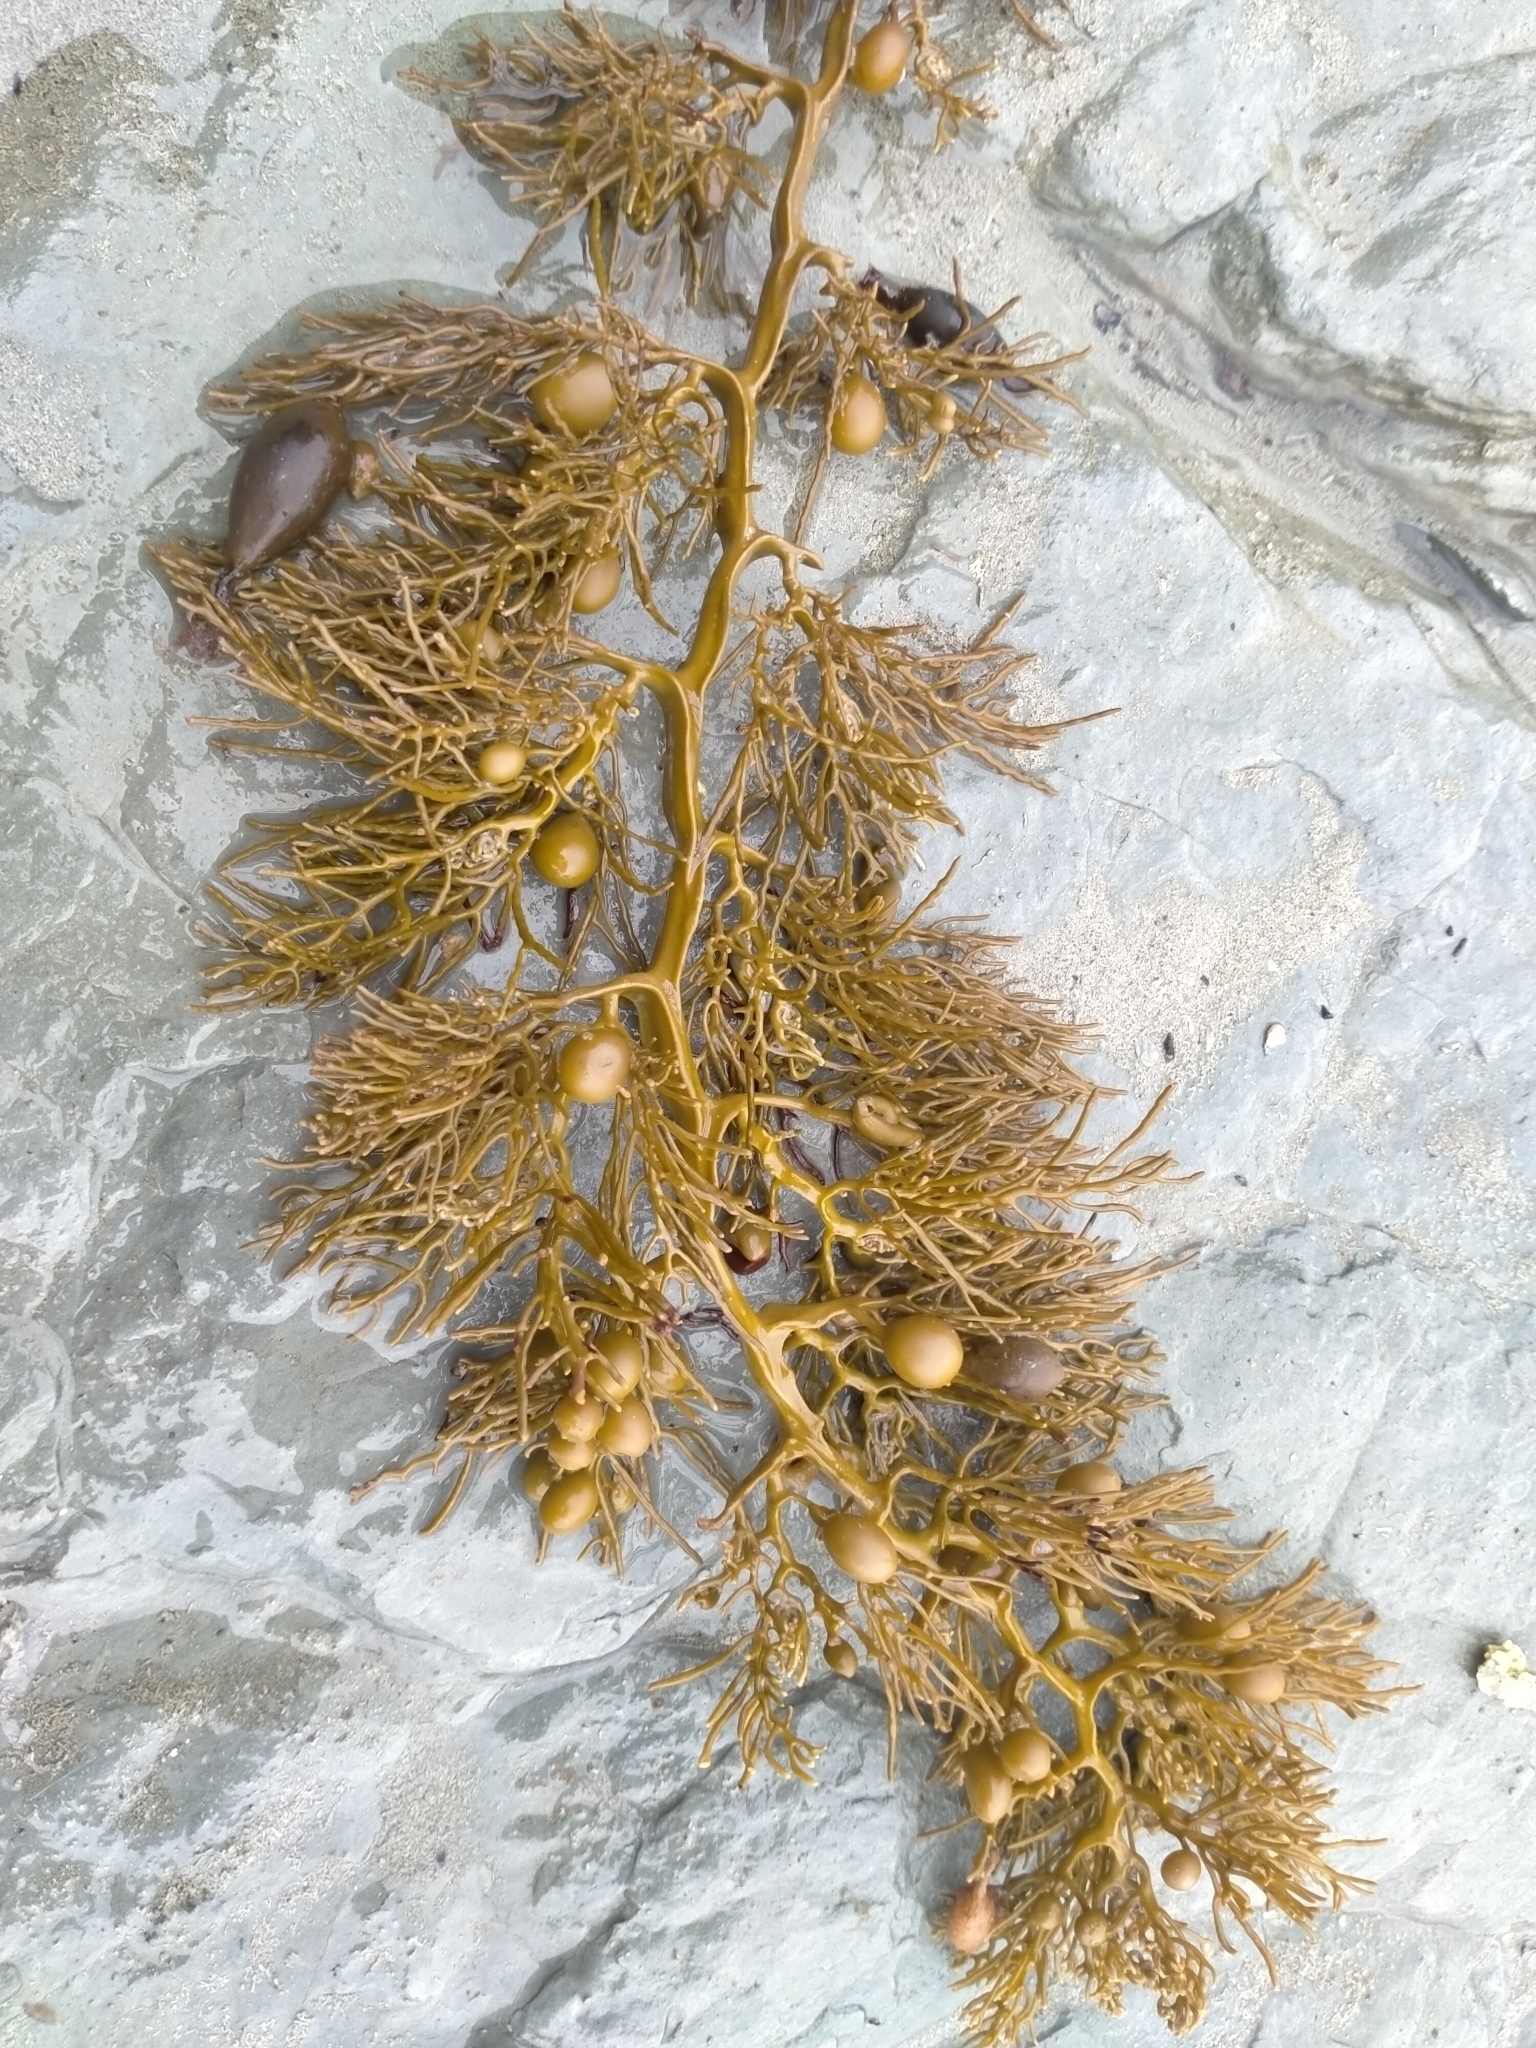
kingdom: Chromista
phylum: Ochrophyta
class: Phaeophyceae
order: Fucales
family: Sargassaceae
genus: Cystophora
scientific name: Cystophora retroflexa
